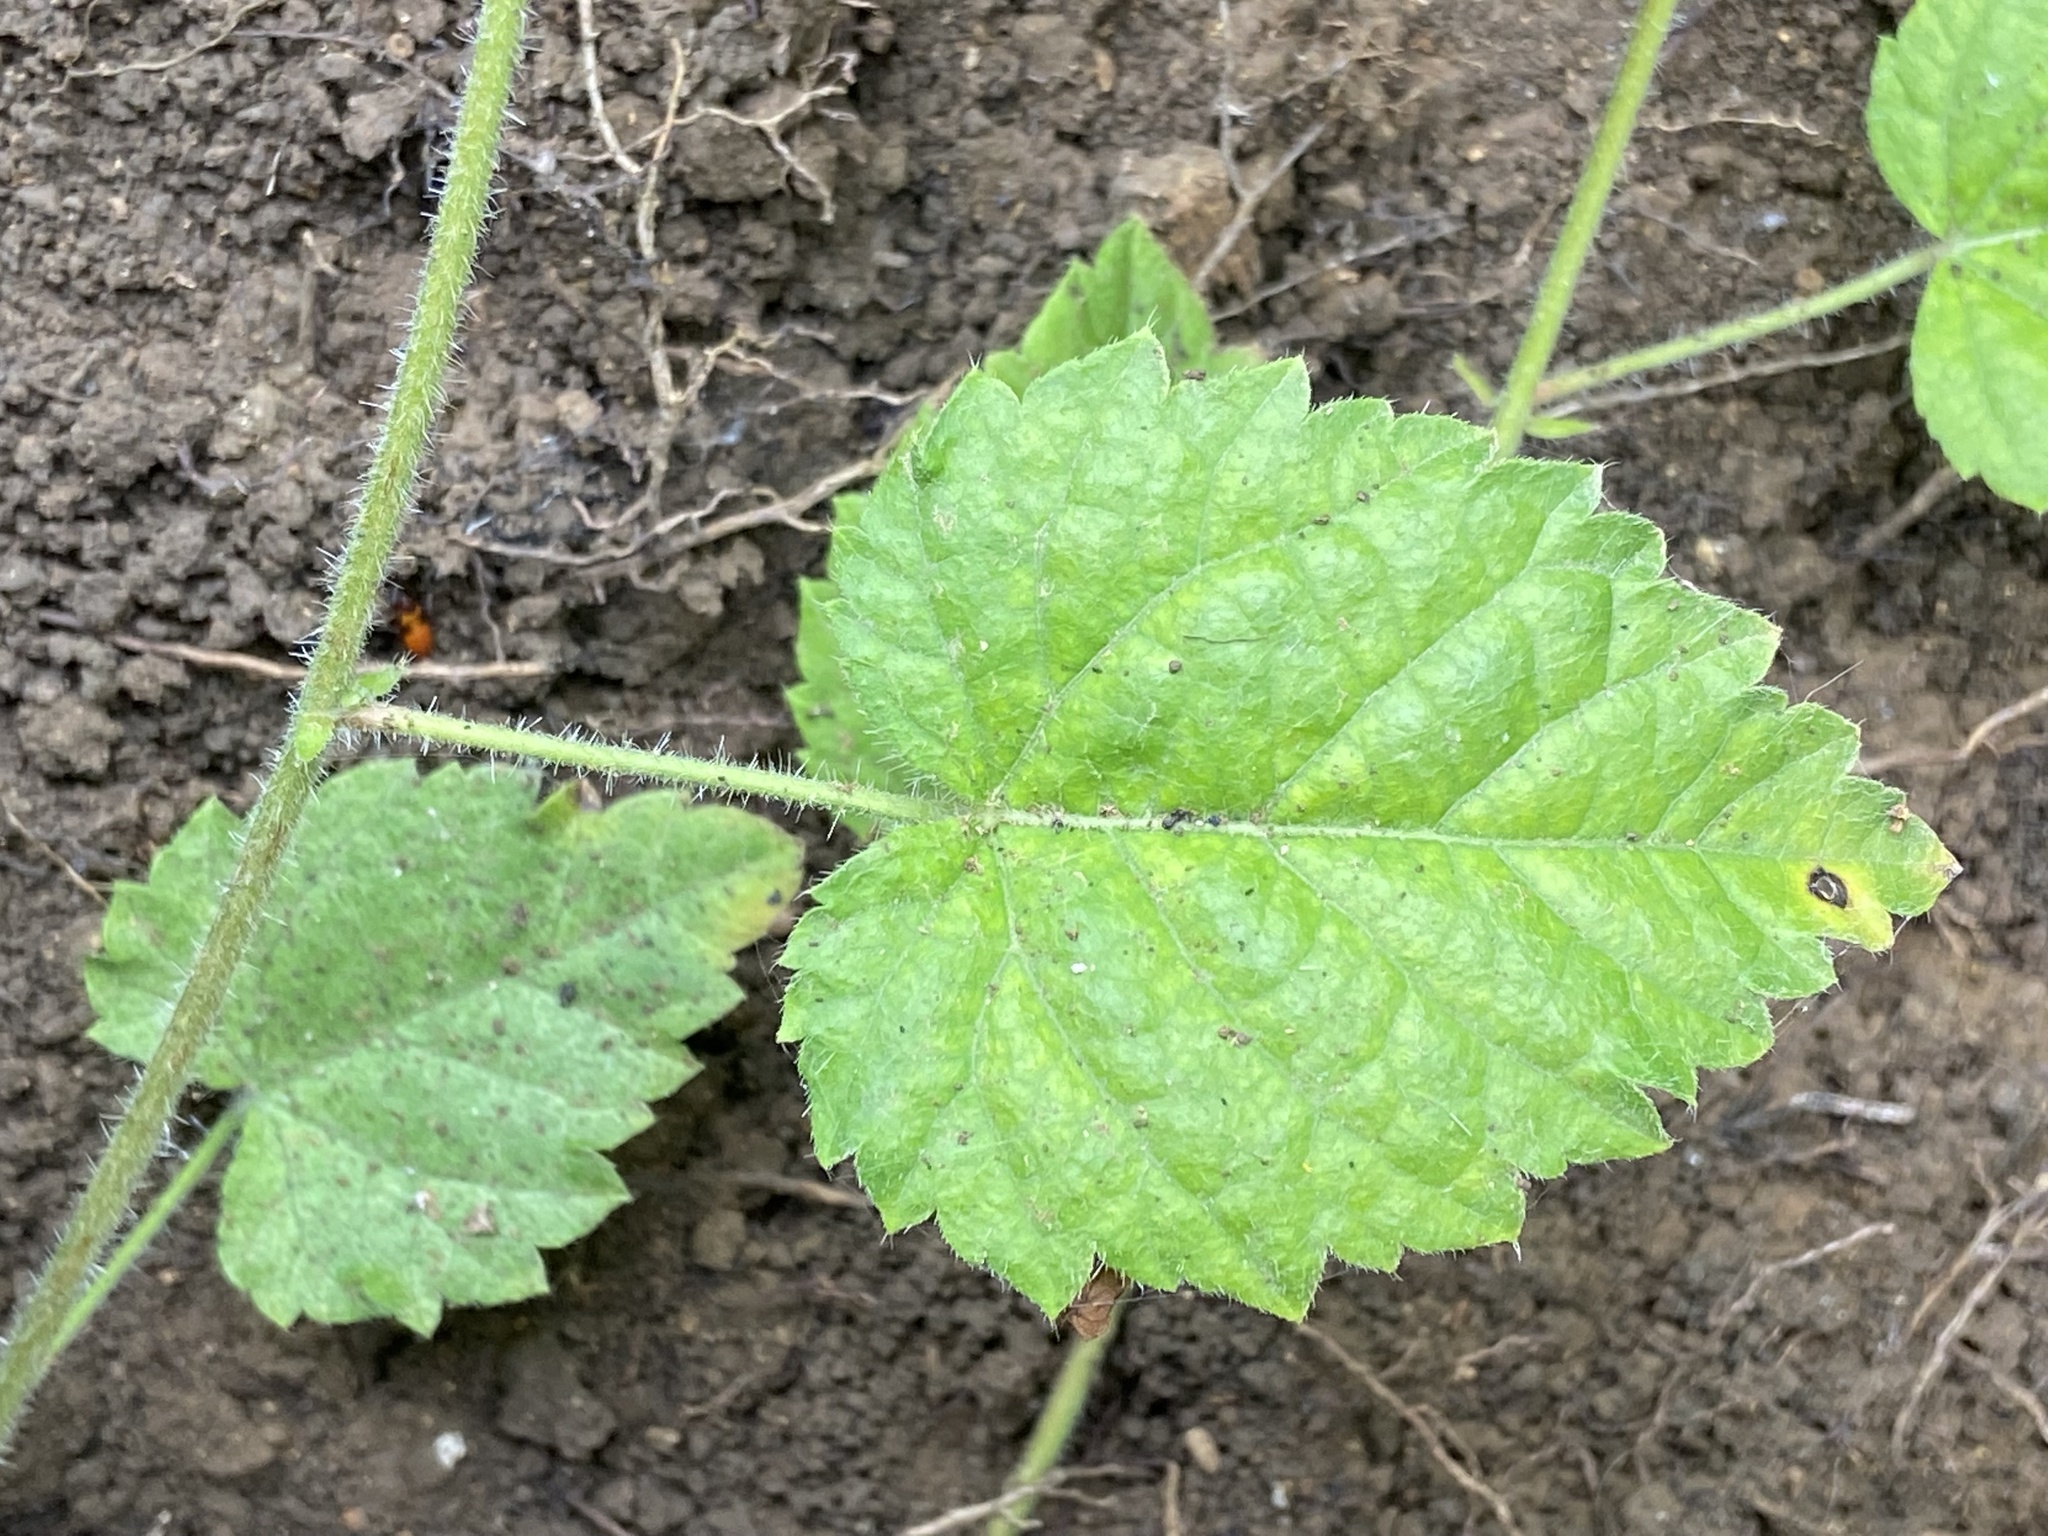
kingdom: Plantae
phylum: Tracheophyta
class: Magnoliopsida
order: Malpighiales
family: Euphorbiaceae
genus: Tragia
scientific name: Tragia cordata
